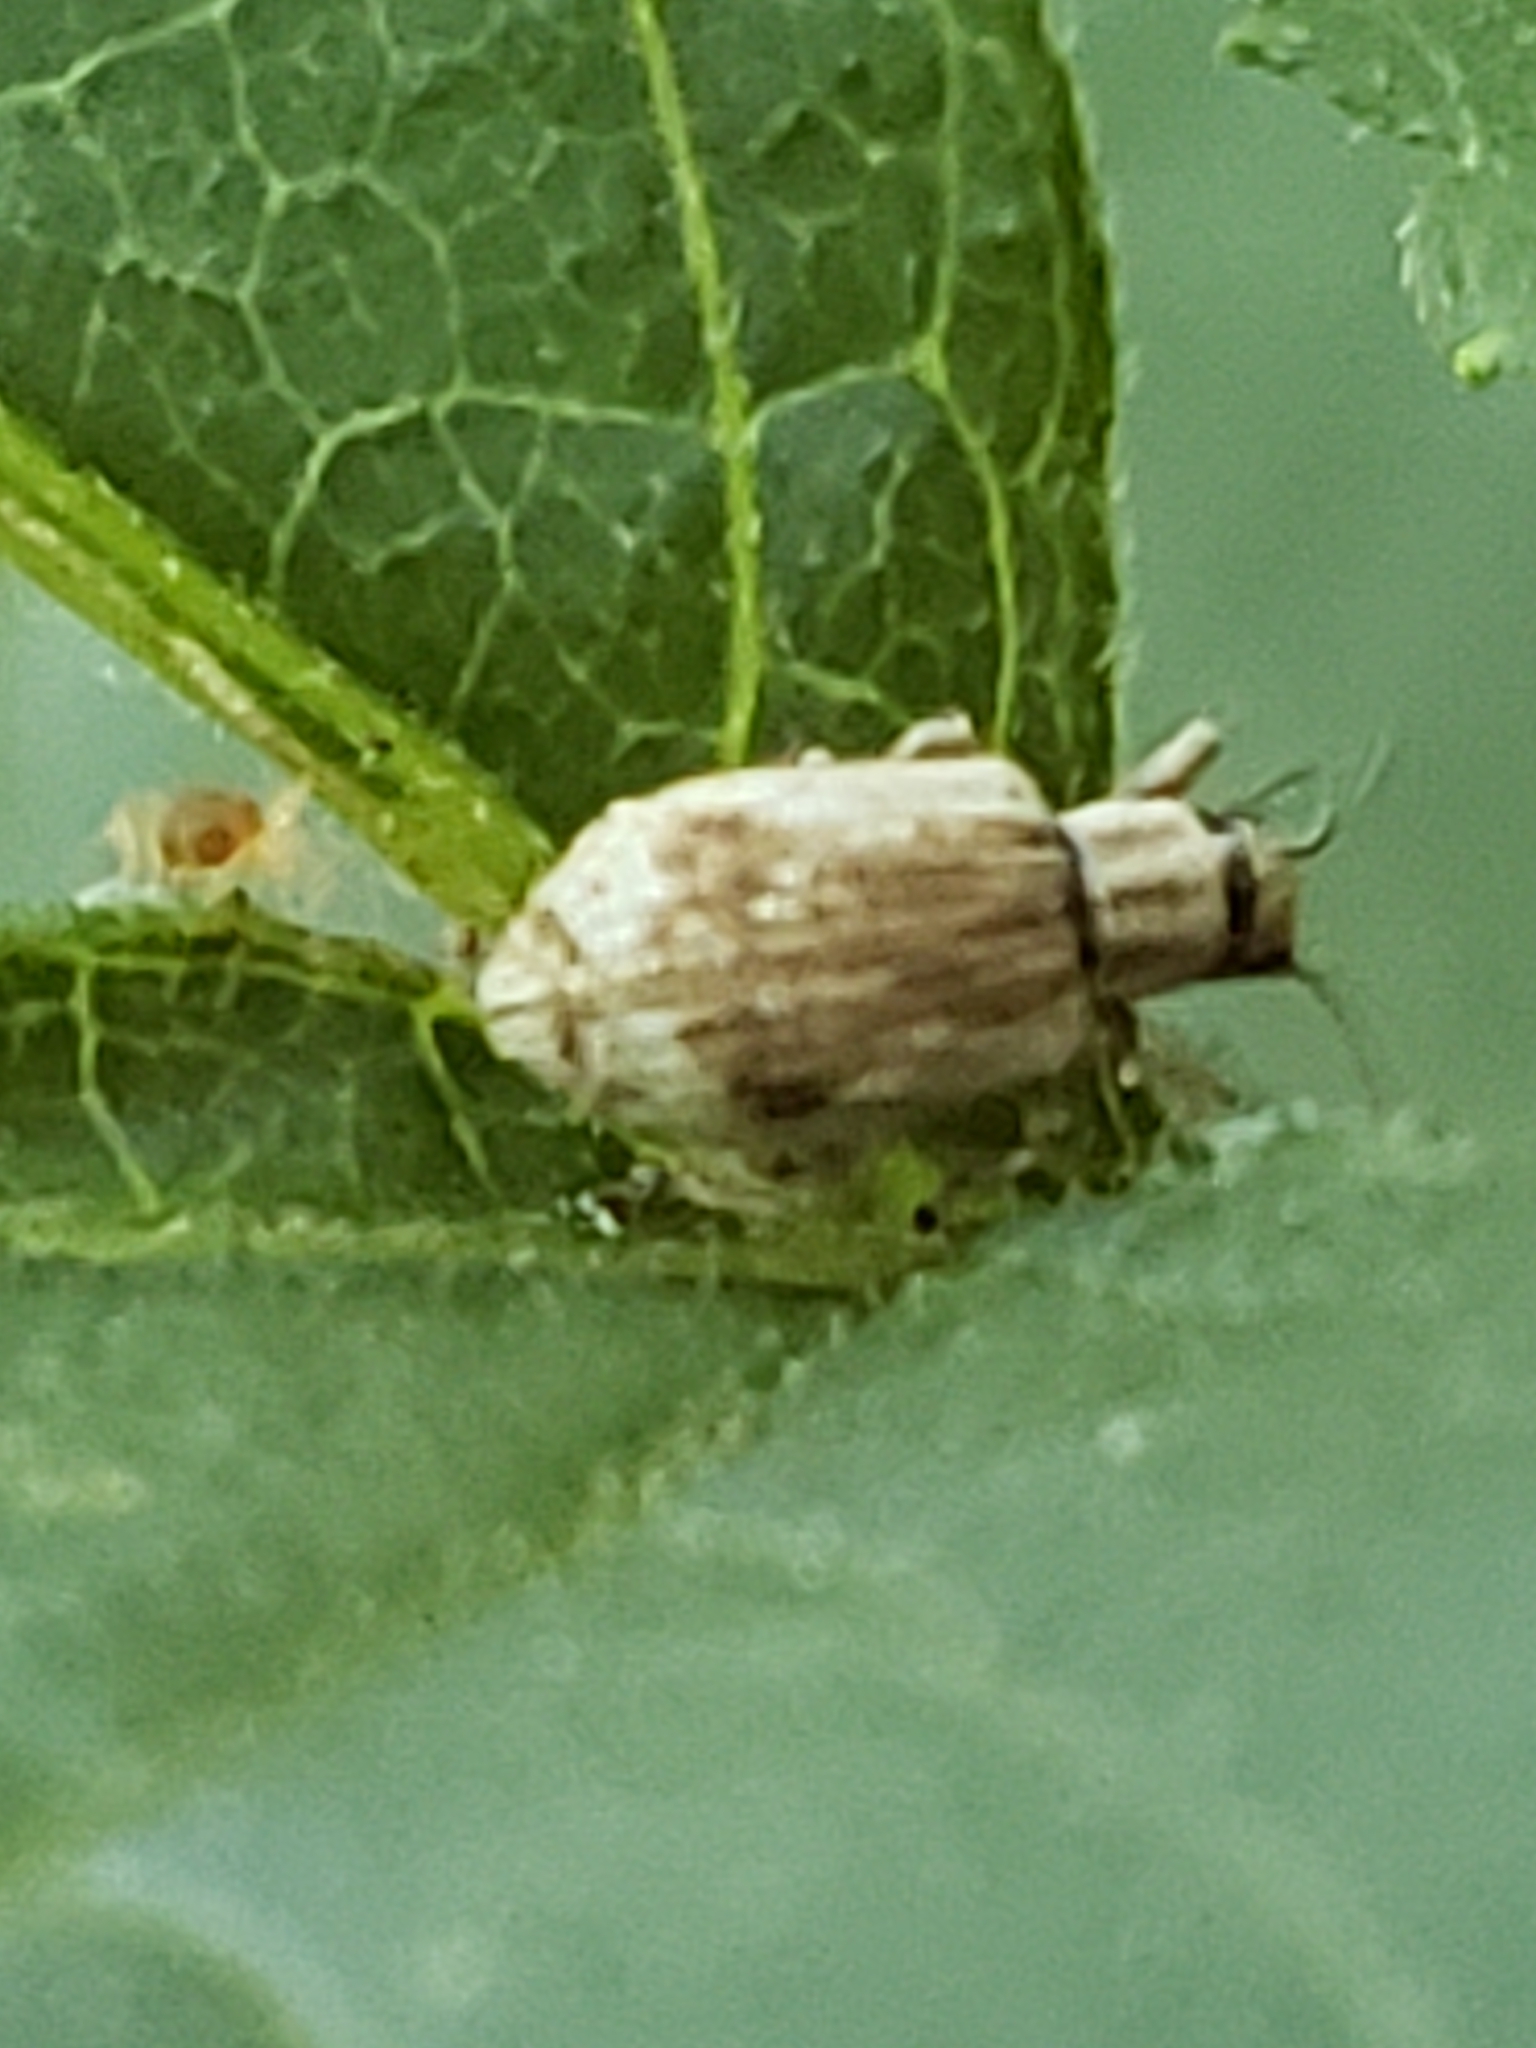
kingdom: Animalia
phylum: Arthropoda
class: Insecta
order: Coleoptera
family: Curculionidae
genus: Pseudoedophrys
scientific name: Pseudoedophrys hilleri
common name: Weevil
